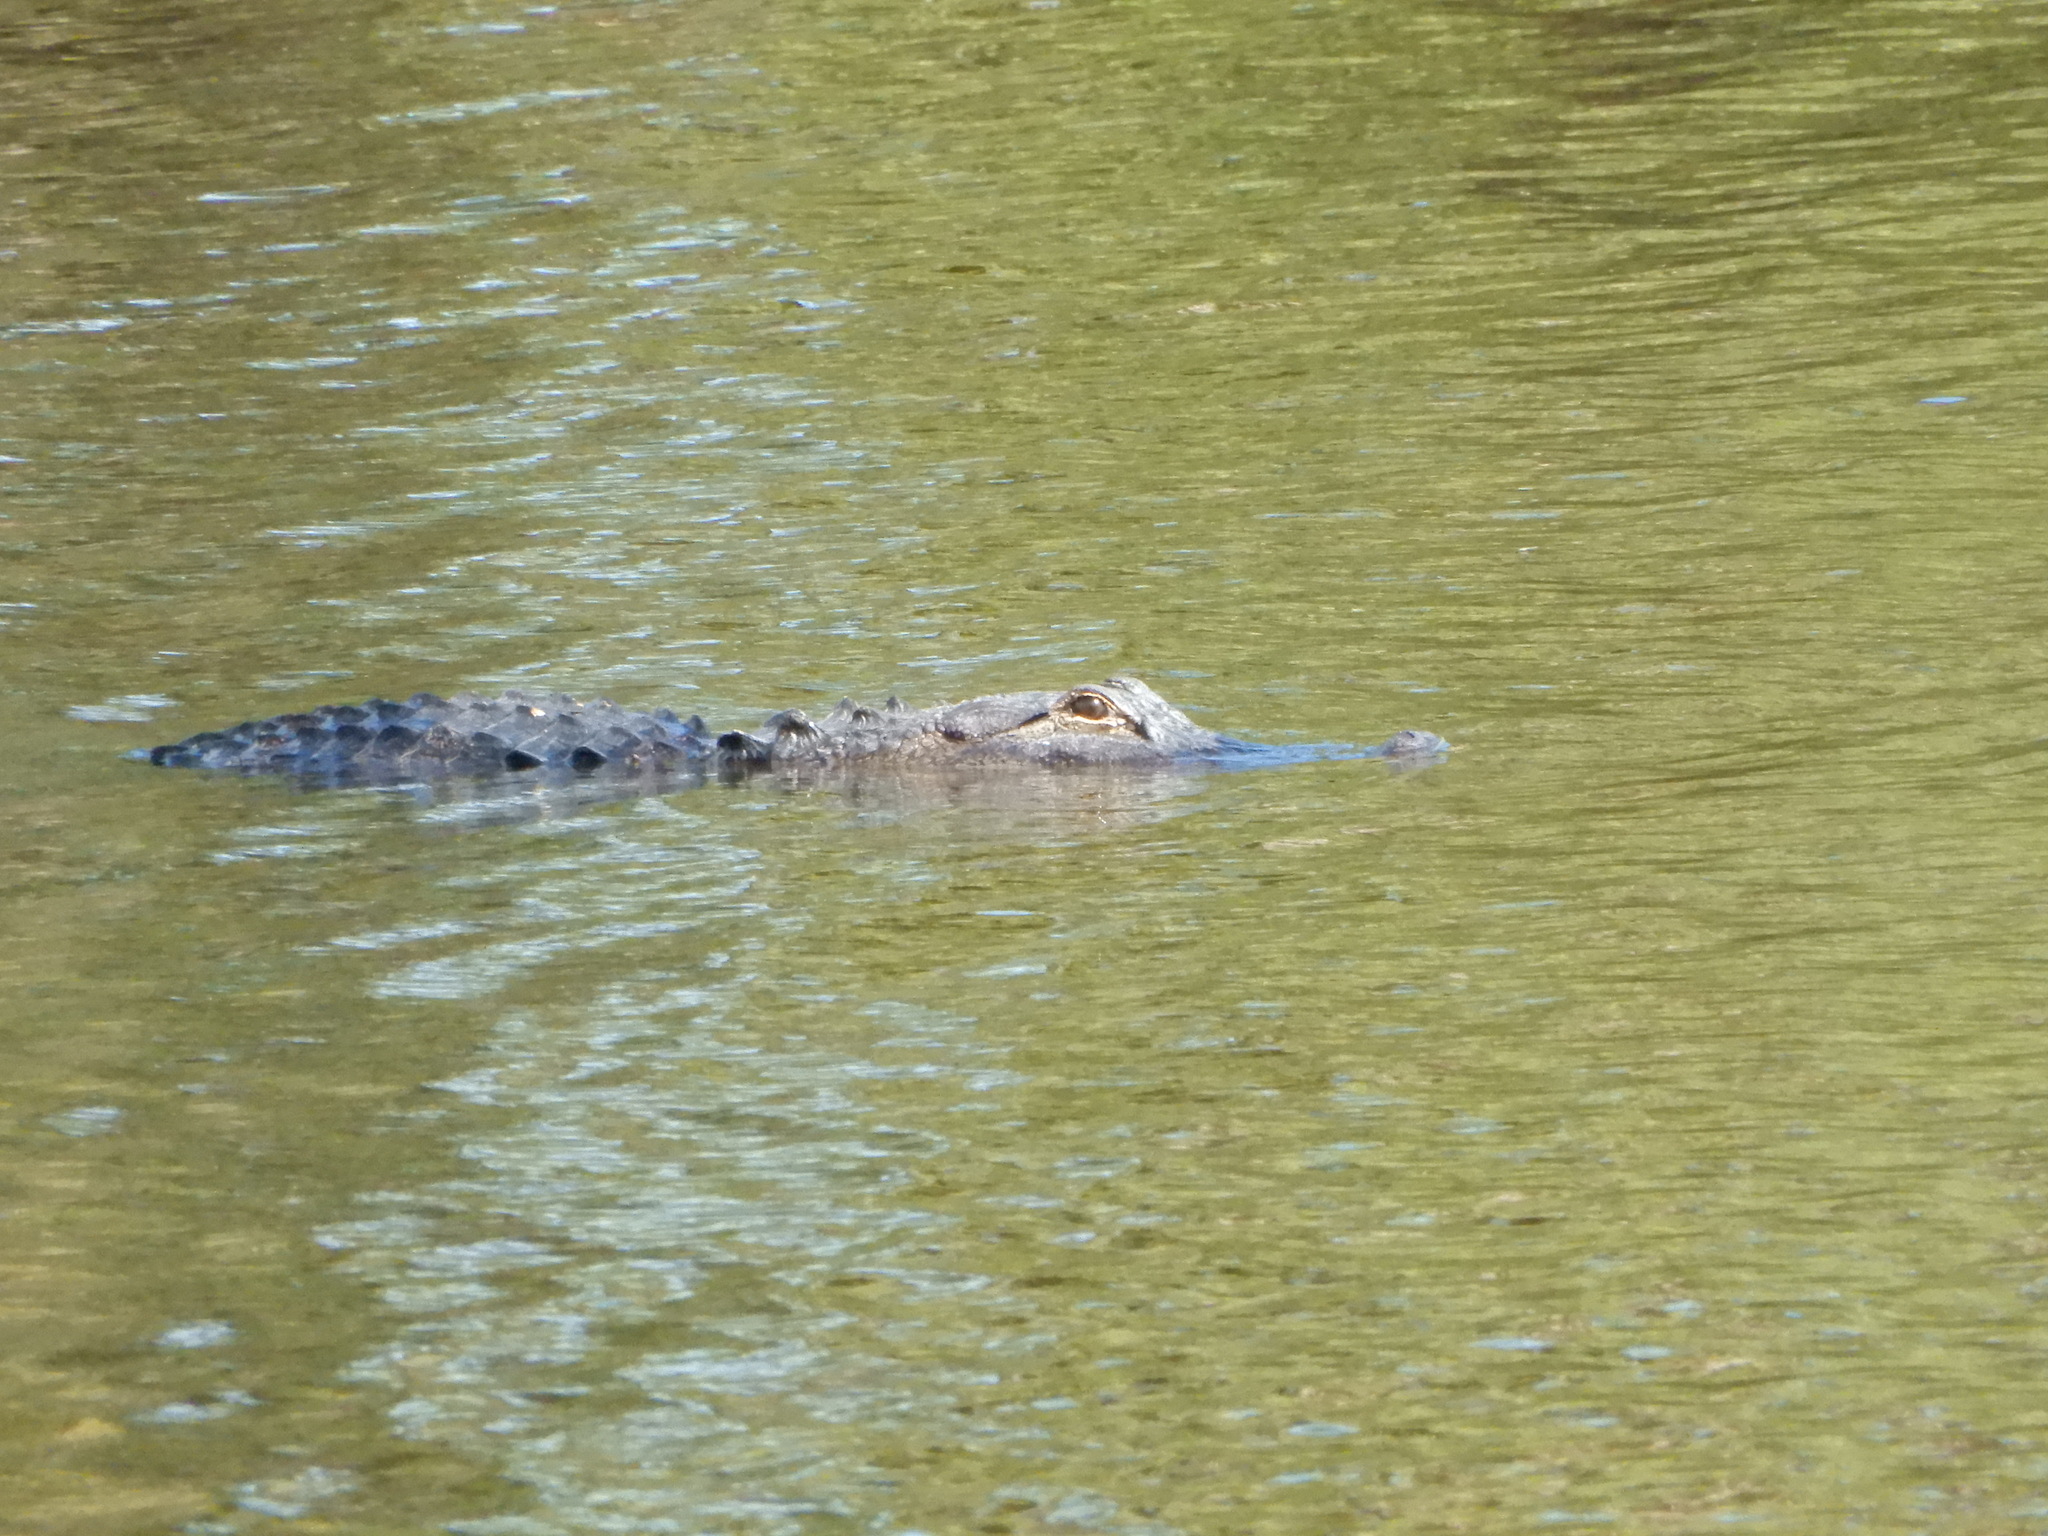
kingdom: Animalia
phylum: Chordata
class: Crocodylia
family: Alligatoridae
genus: Alligator
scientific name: Alligator mississippiensis
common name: American alligator
